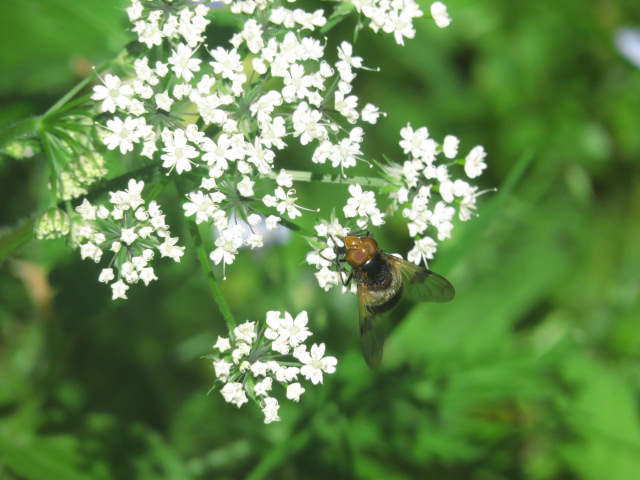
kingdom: Animalia
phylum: Arthropoda
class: Insecta
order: Diptera
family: Syrphidae
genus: Volucella
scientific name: Volucella pellucens
